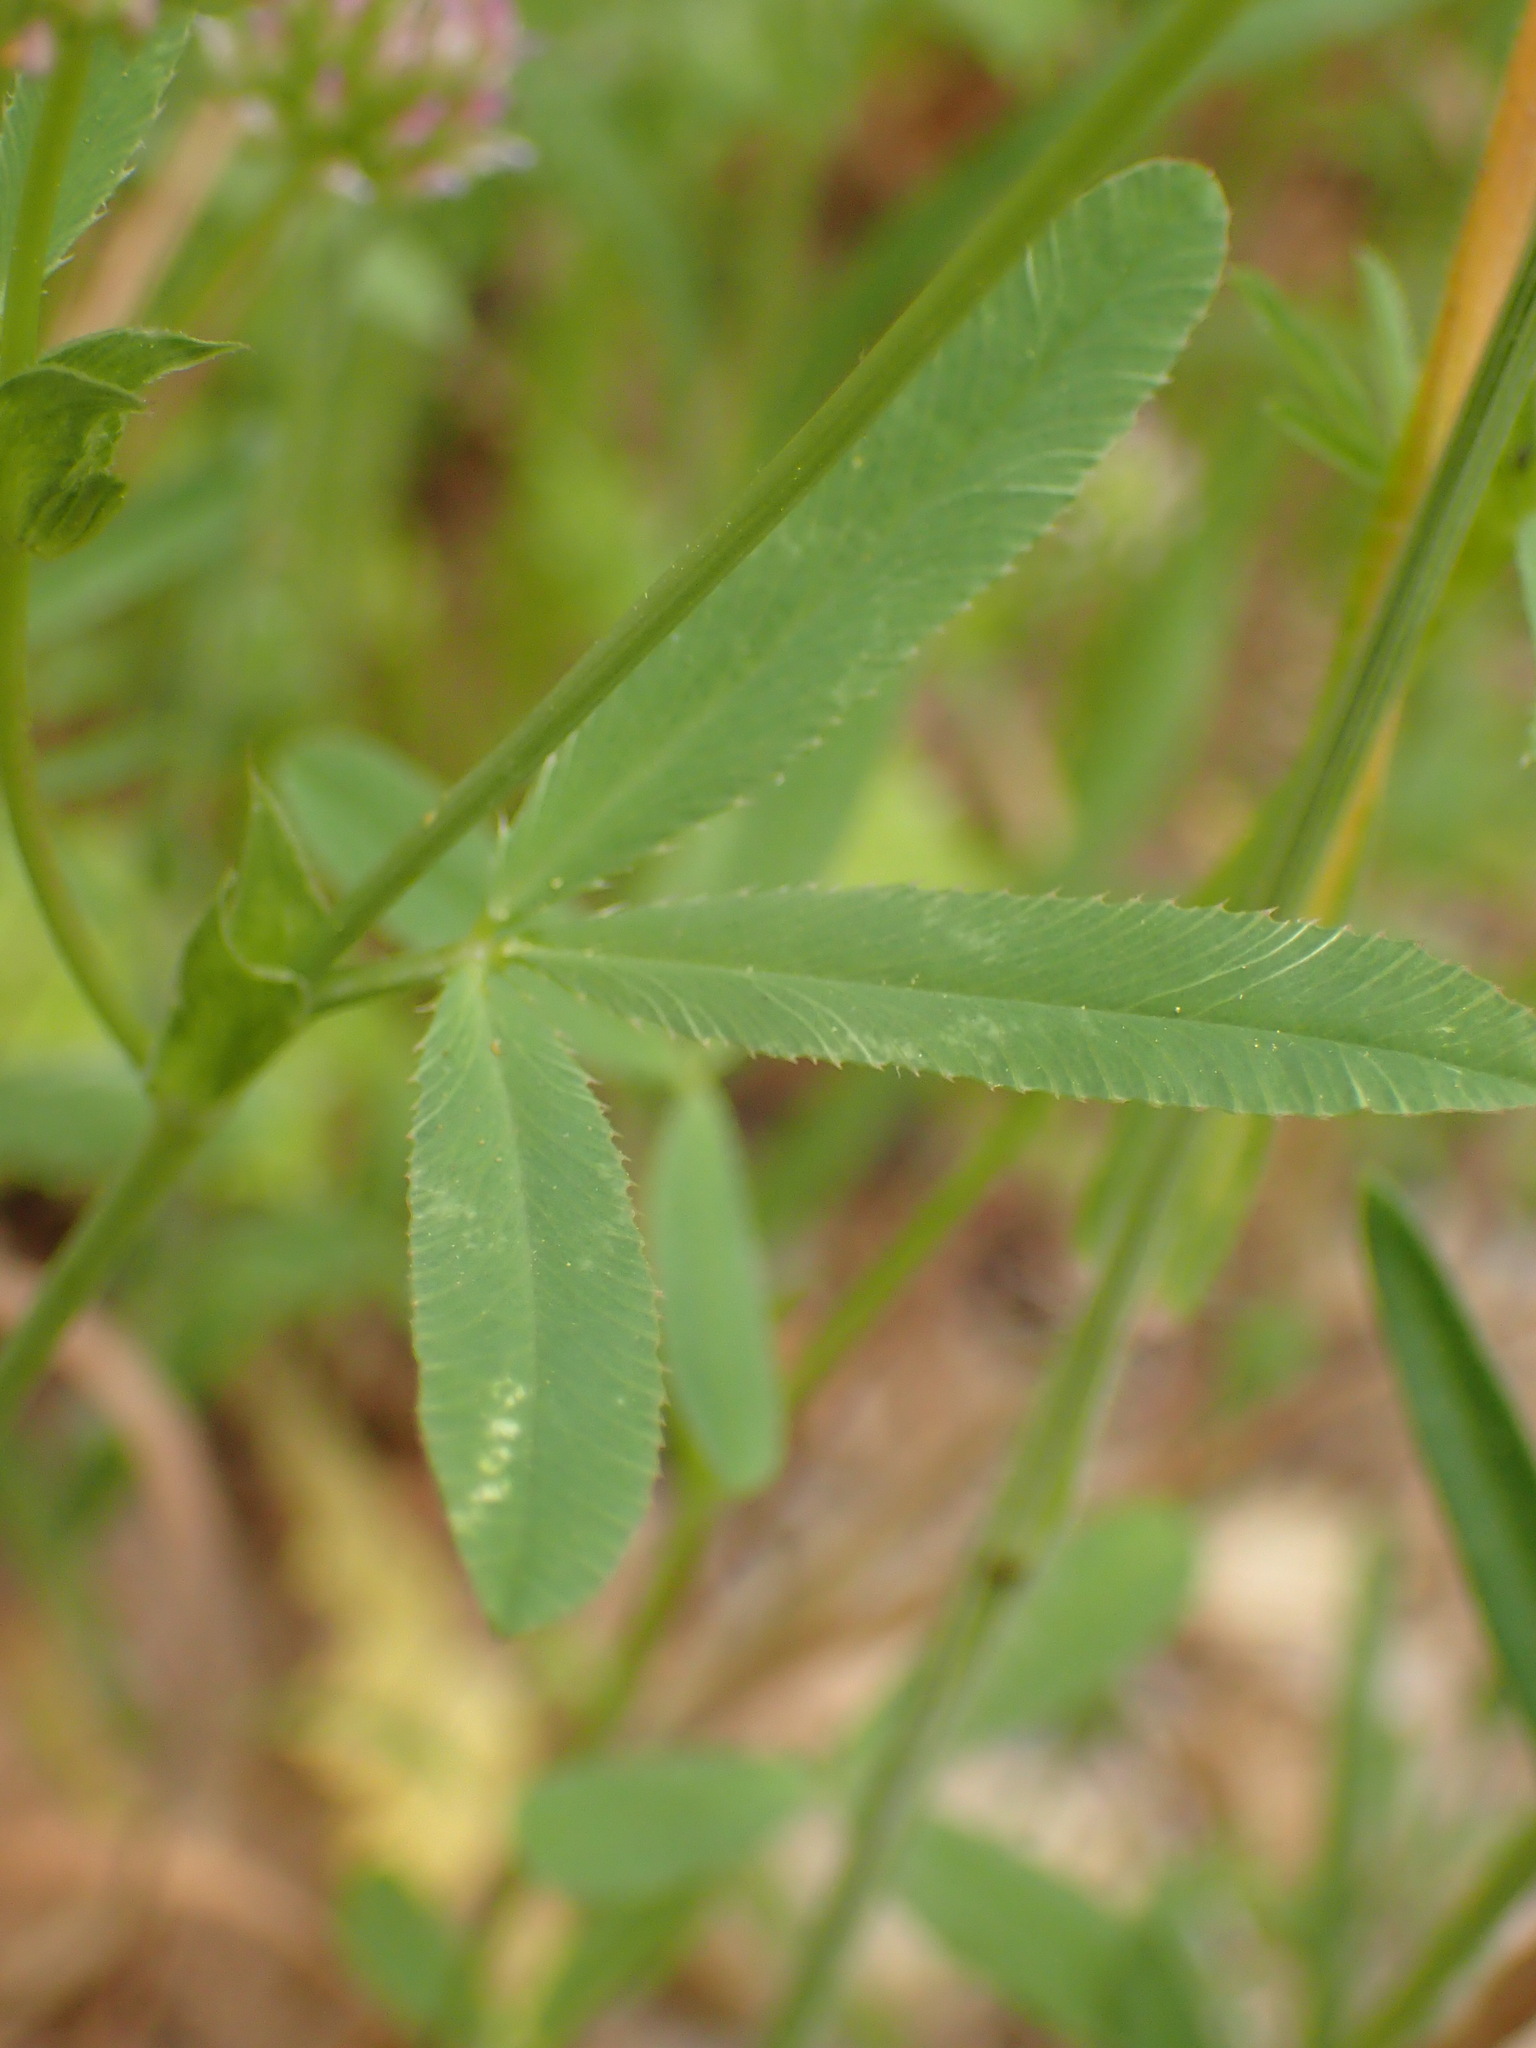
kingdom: Plantae
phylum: Tracheophyta
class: Magnoliopsida
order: Fabales
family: Fabaceae
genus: Trifolium
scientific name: Trifolium ciliolatum
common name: Foothill clover
